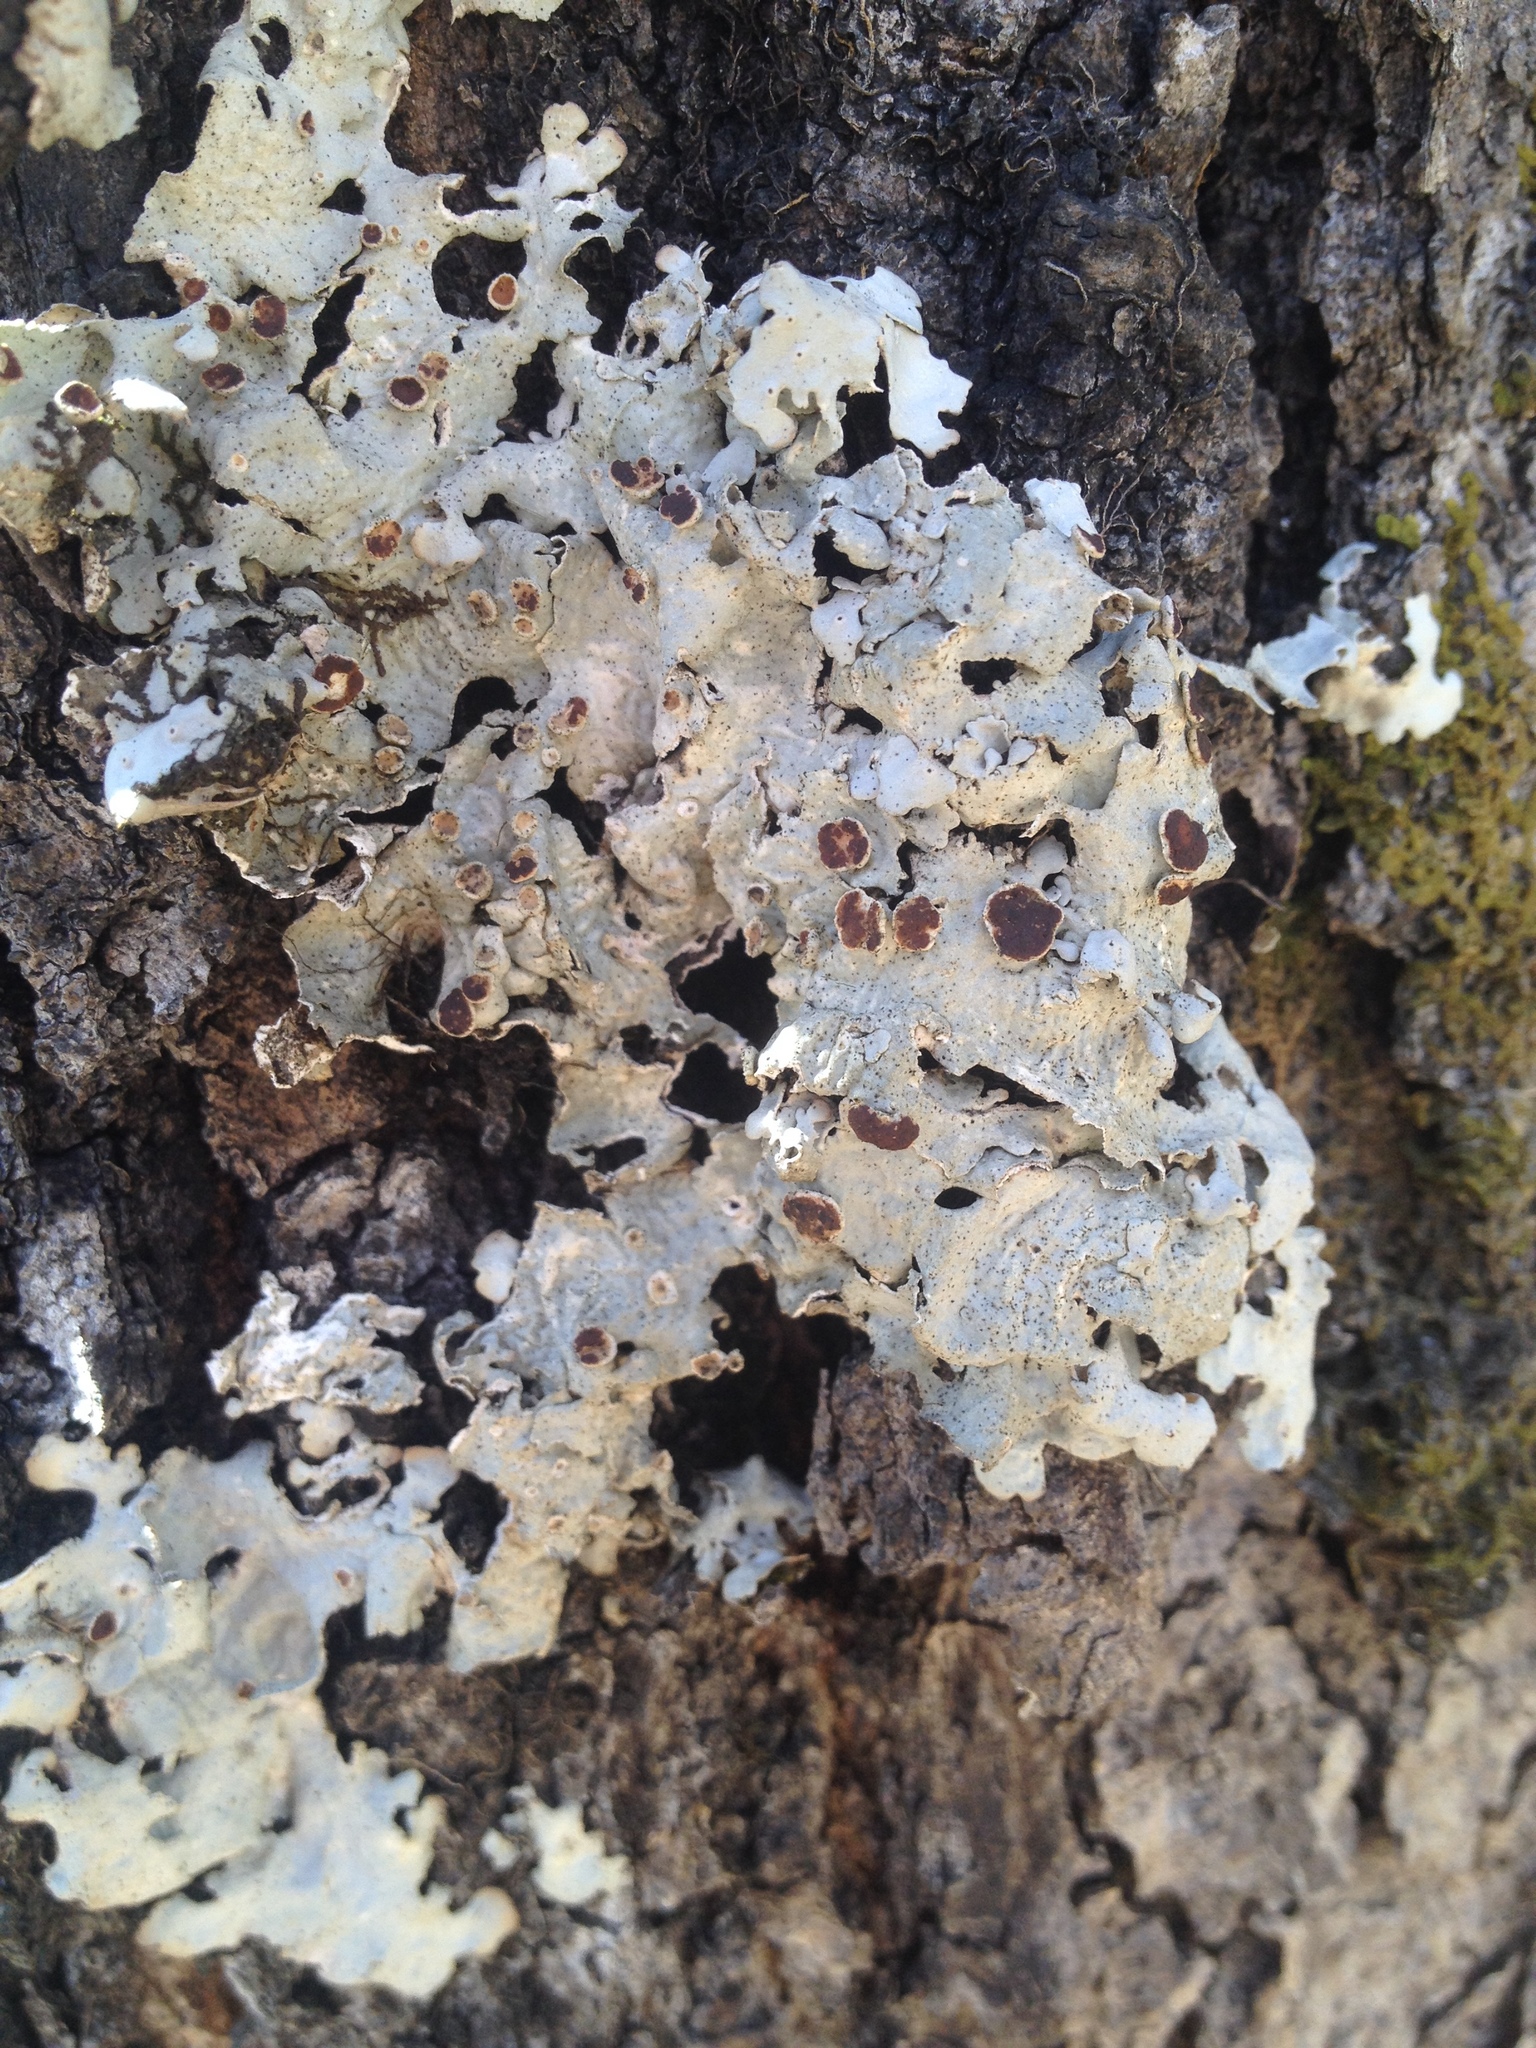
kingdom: Fungi
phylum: Ascomycota
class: Lecanoromycetes
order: Peltigerales
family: Lobariaceae
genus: Ricasolia
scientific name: Ricasolia quercizans
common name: Smooth lungwort
